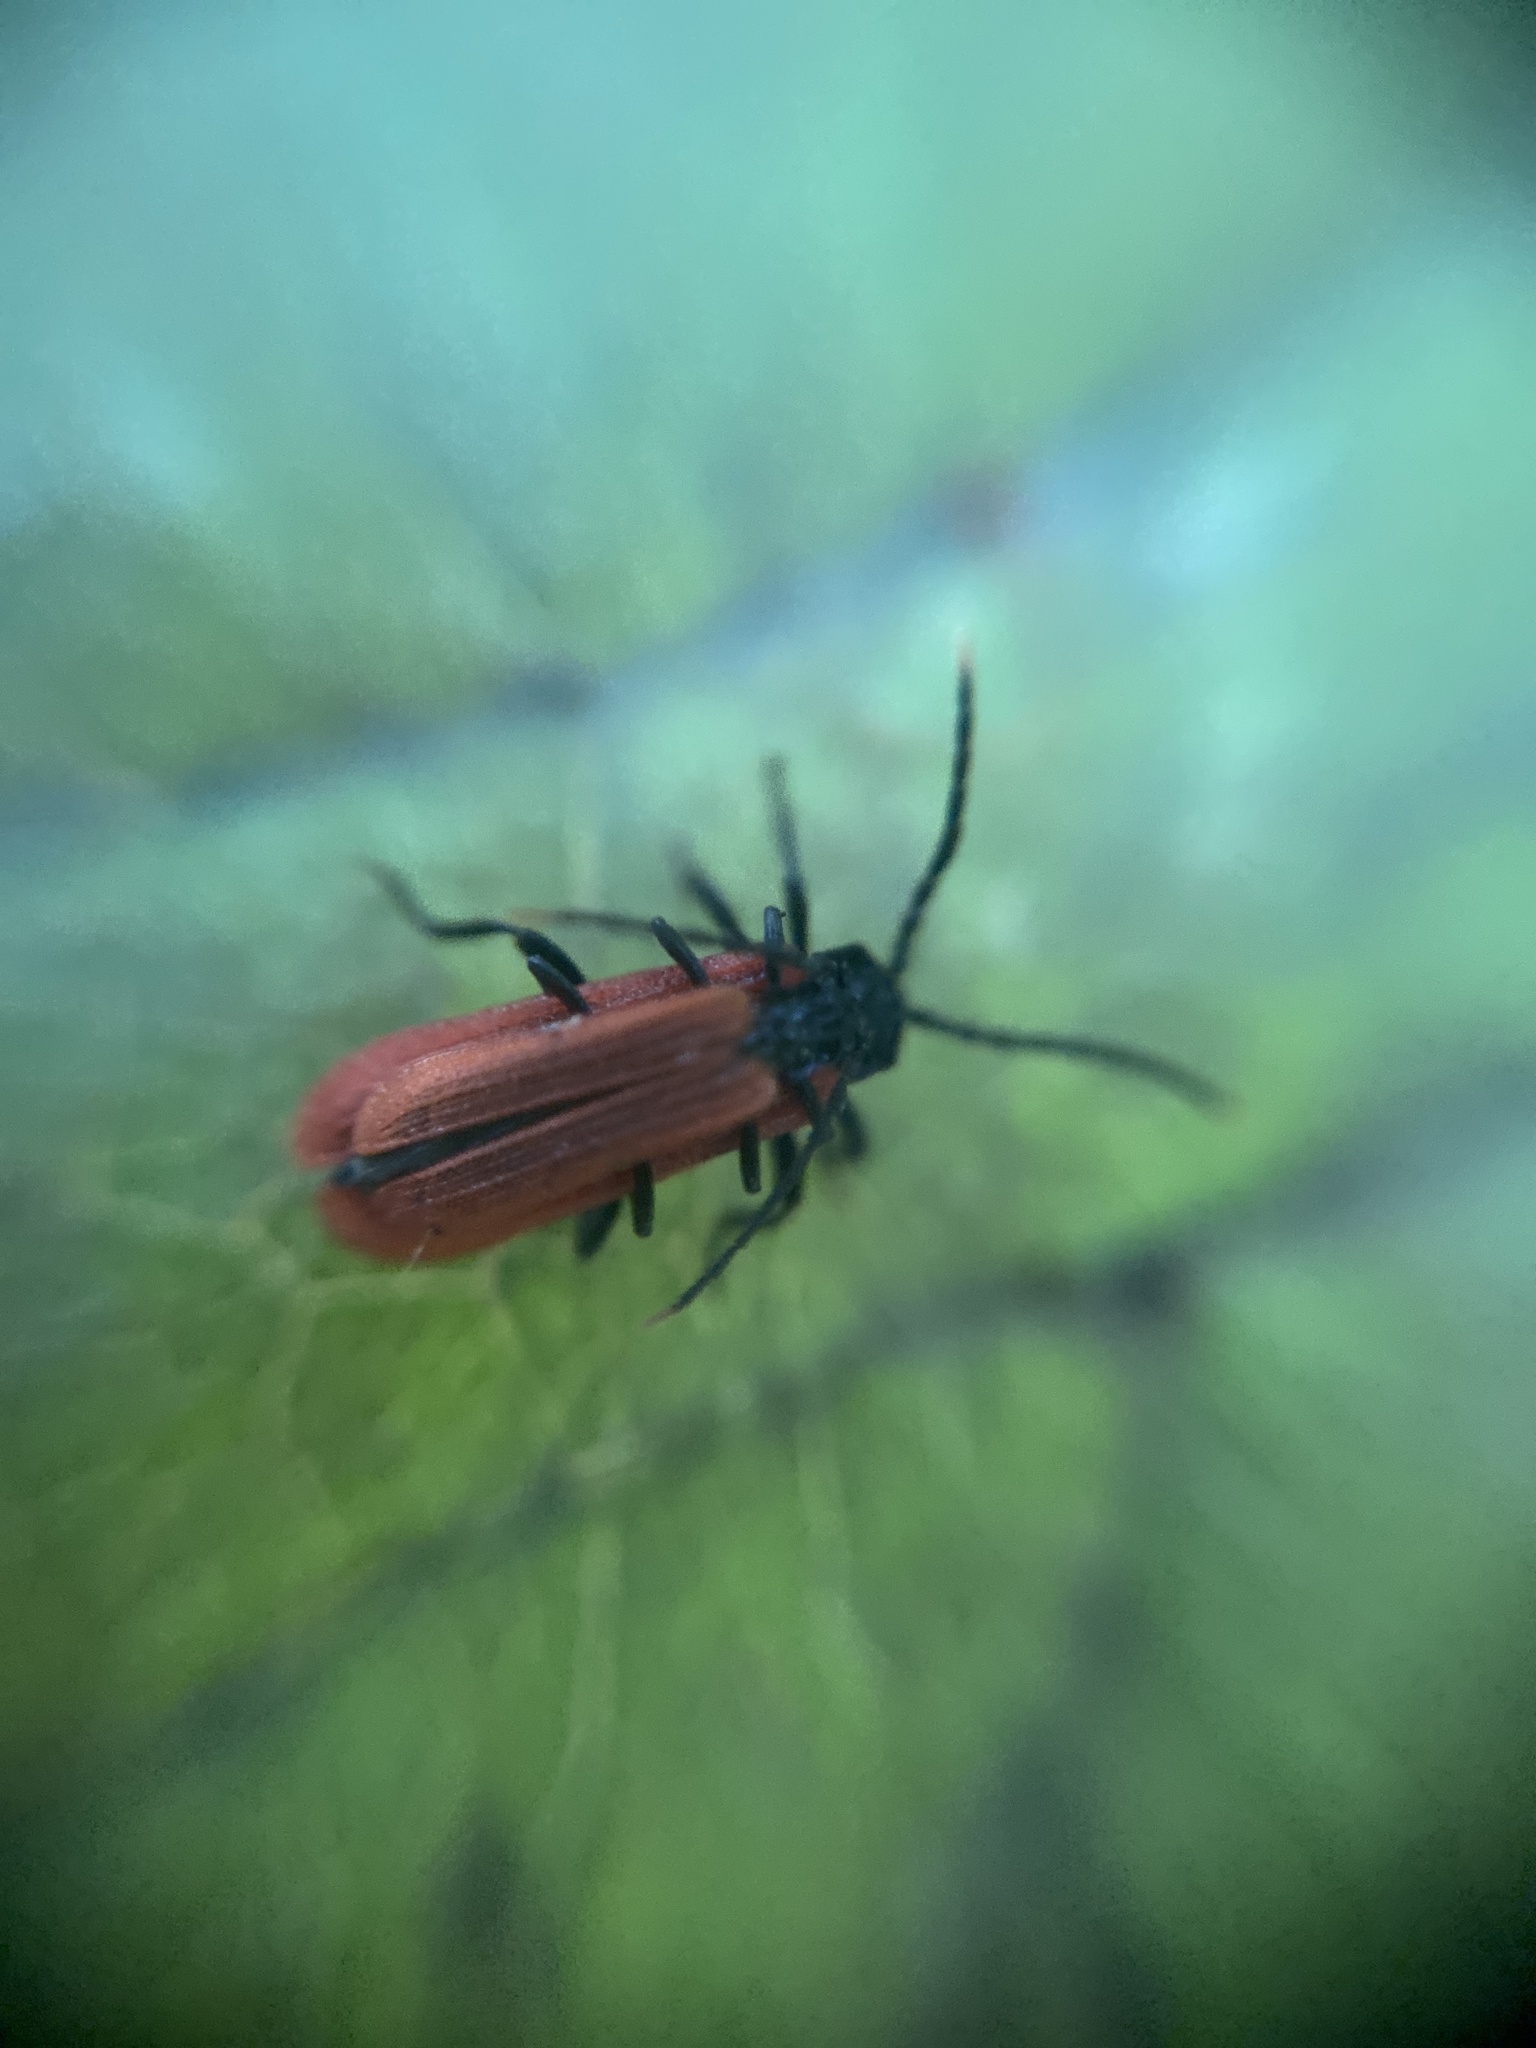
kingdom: Animalia
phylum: Arthropoda
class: Insecta
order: Coleoptera
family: Lycidae
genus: Platycis
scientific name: Platycis minutus
